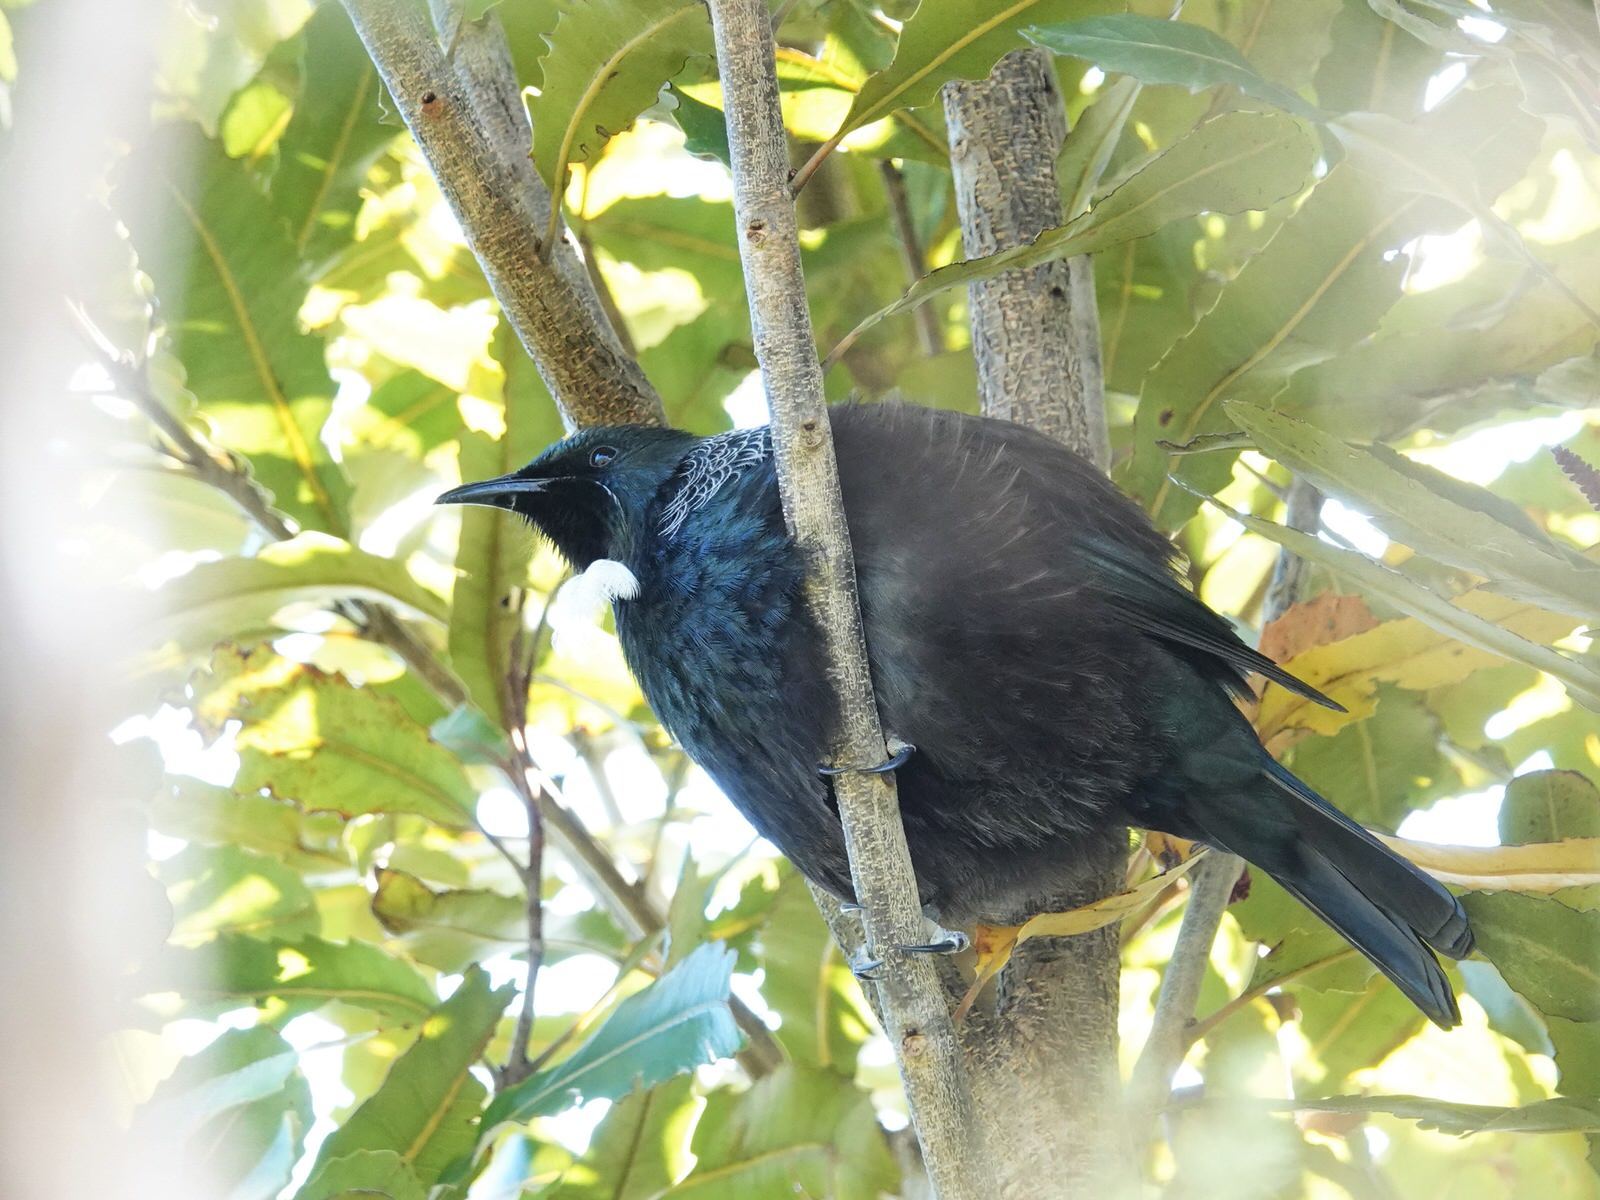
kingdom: Animalia
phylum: Chordata
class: Aves
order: Passeriformes
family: Meliphagidae
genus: Prosthemadera
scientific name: Prosthemadera novaeseelandiae
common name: Tui
